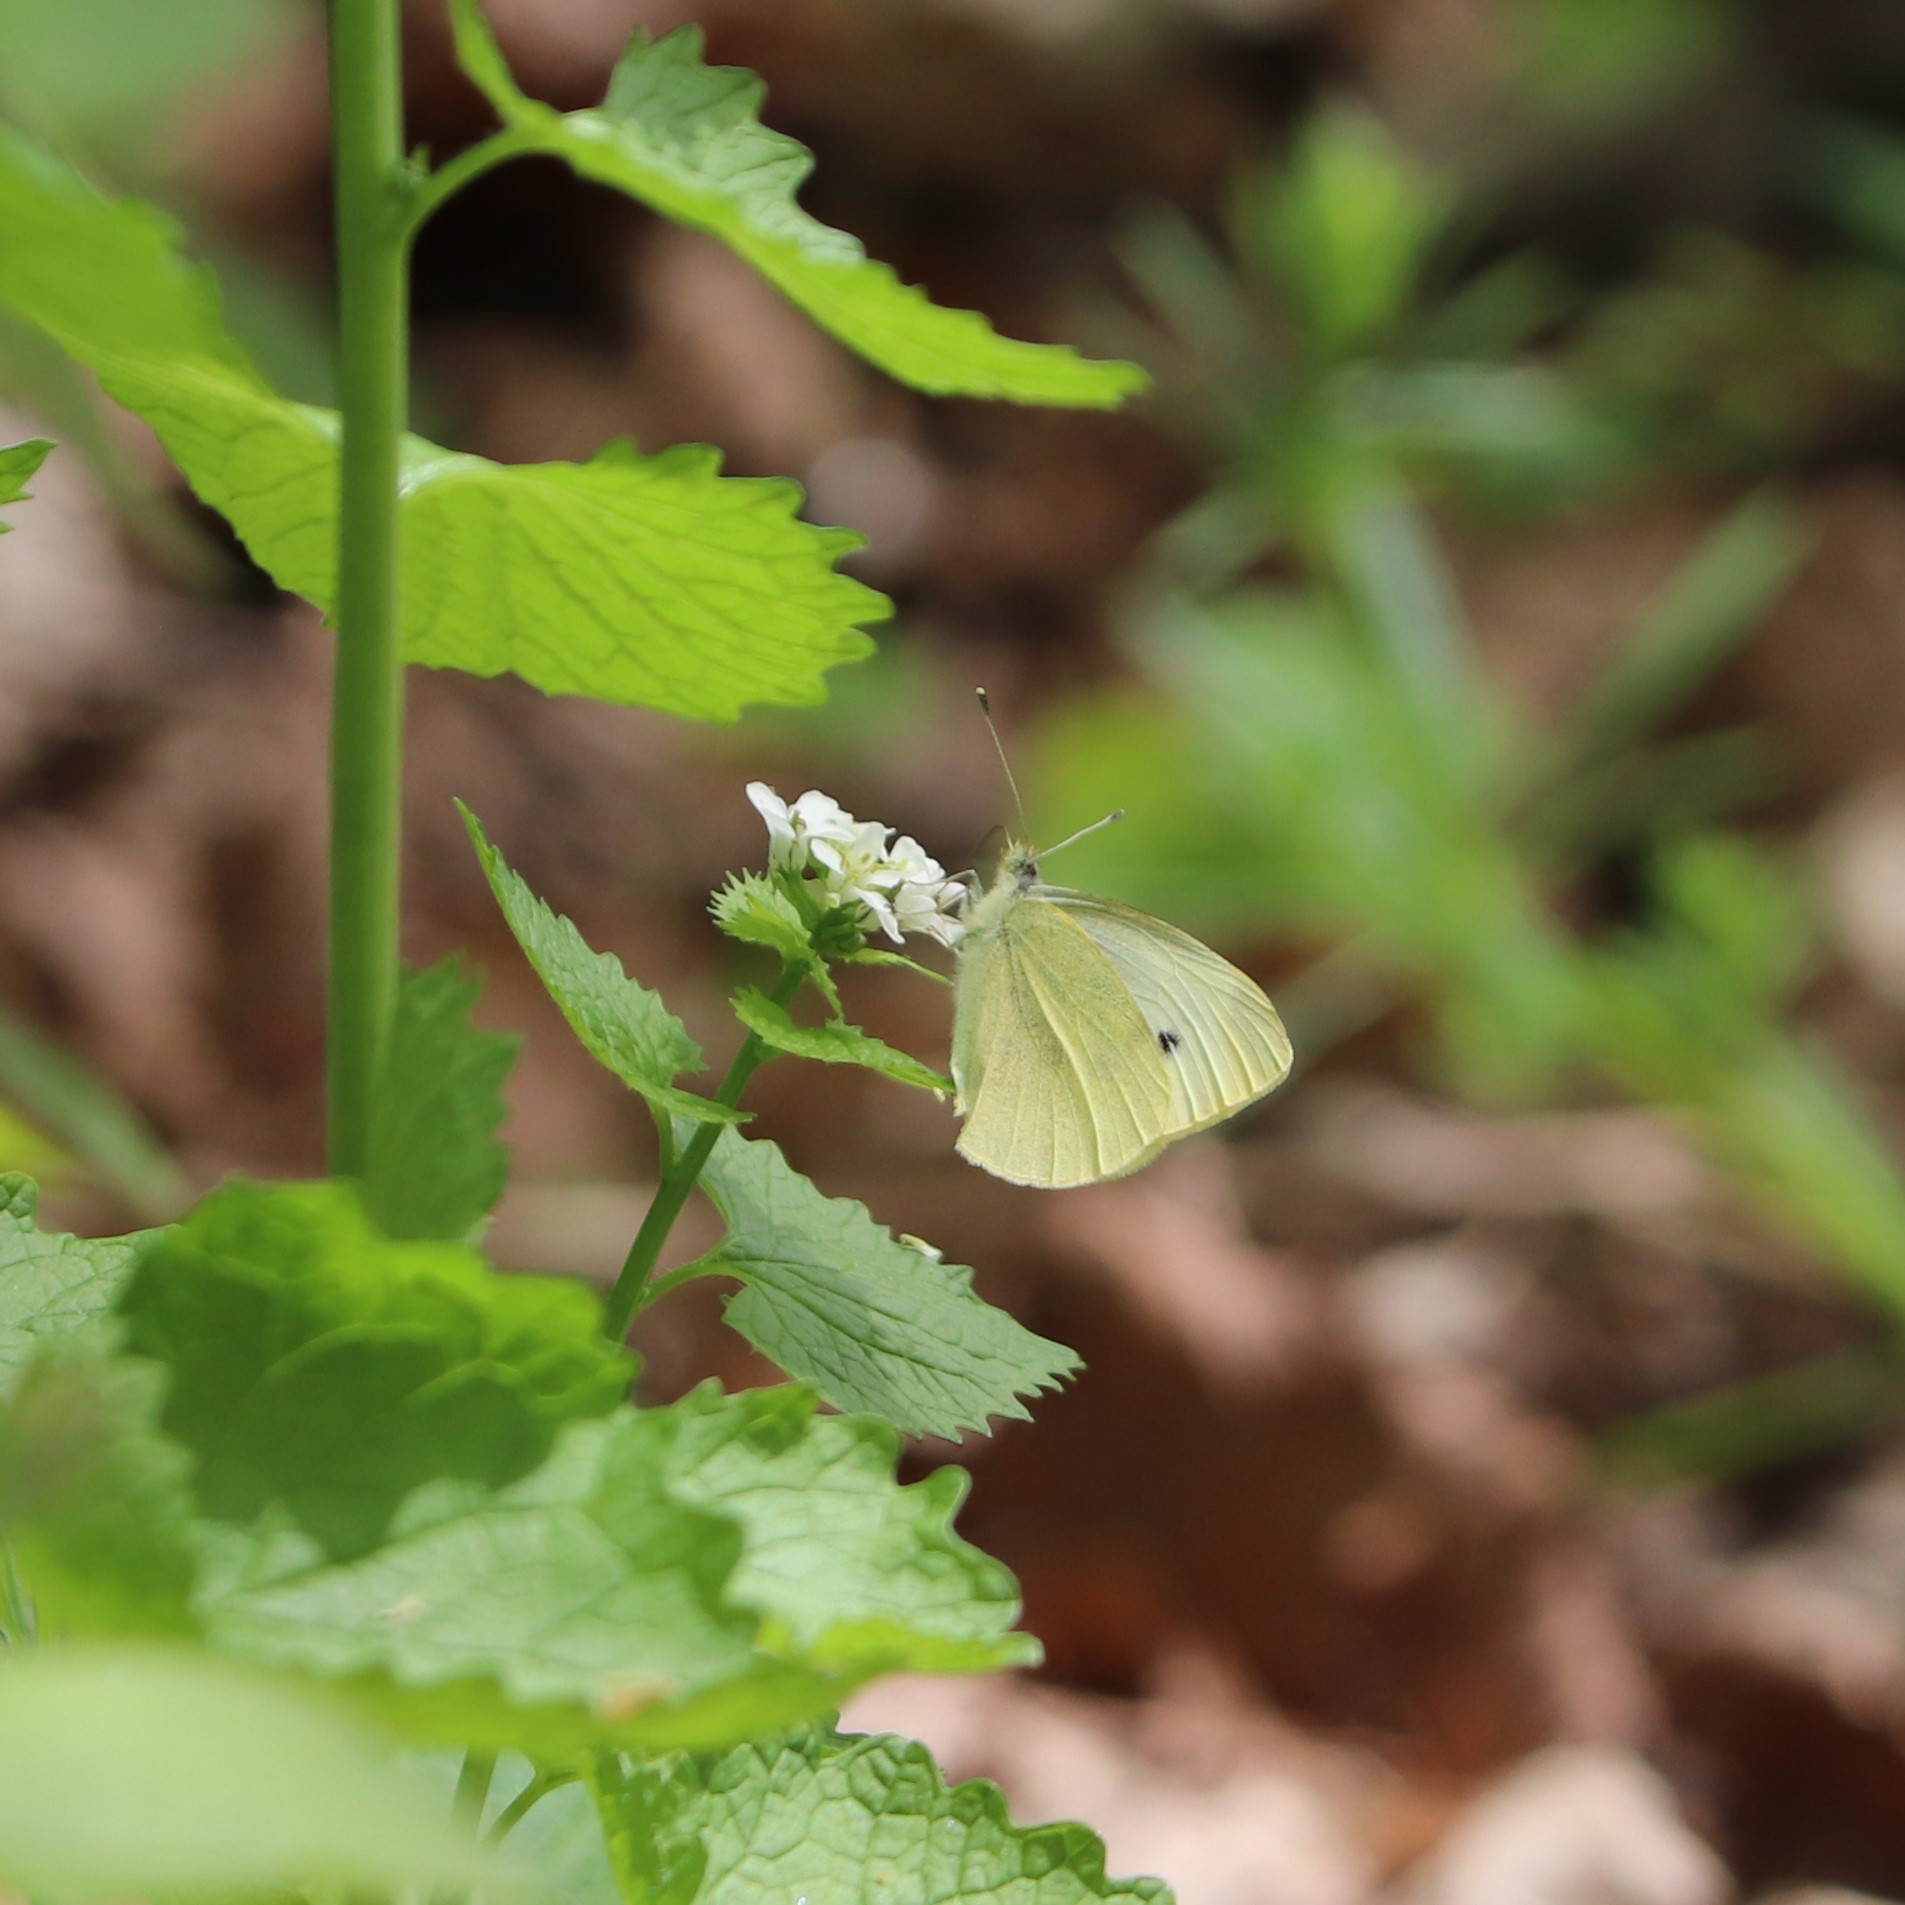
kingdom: Animalia
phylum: Arthropoda
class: Insecta
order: Lepidoptera
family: Pieridae
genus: Pieris
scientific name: Pieris rapae
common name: Small white
